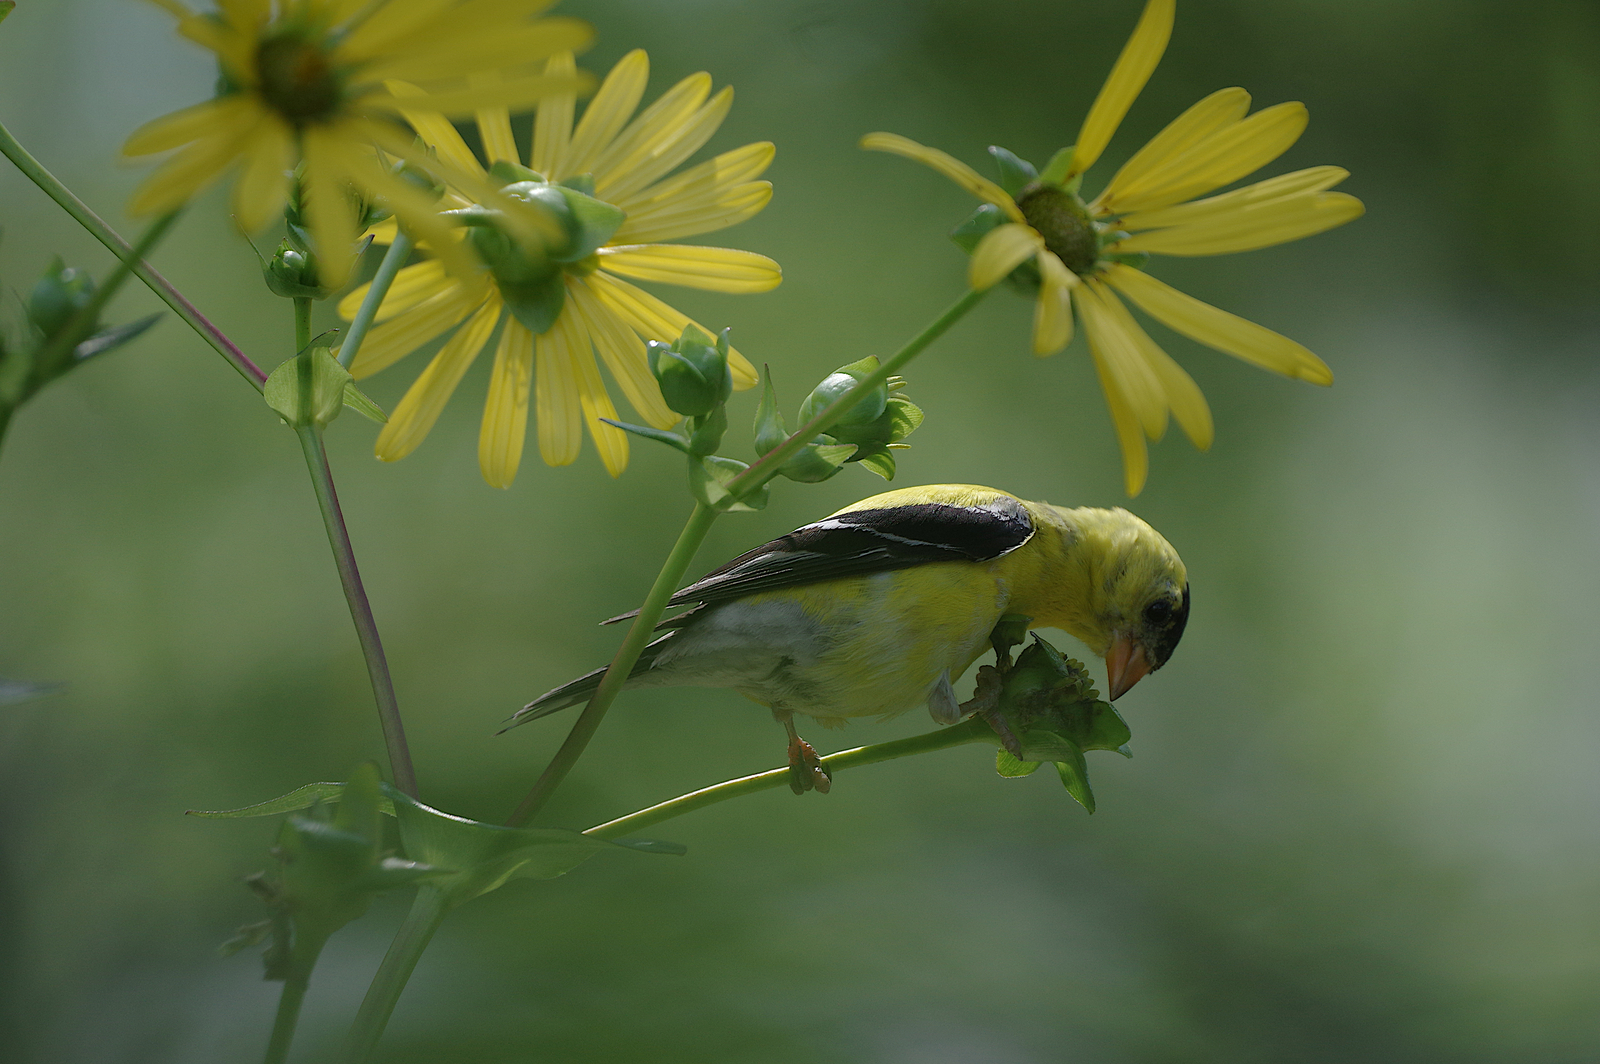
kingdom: Animalia
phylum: Chordata
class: Aves
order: Passeriformes
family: Fringillidae
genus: Spinus
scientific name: Spinus tristis
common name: American goldfinch
